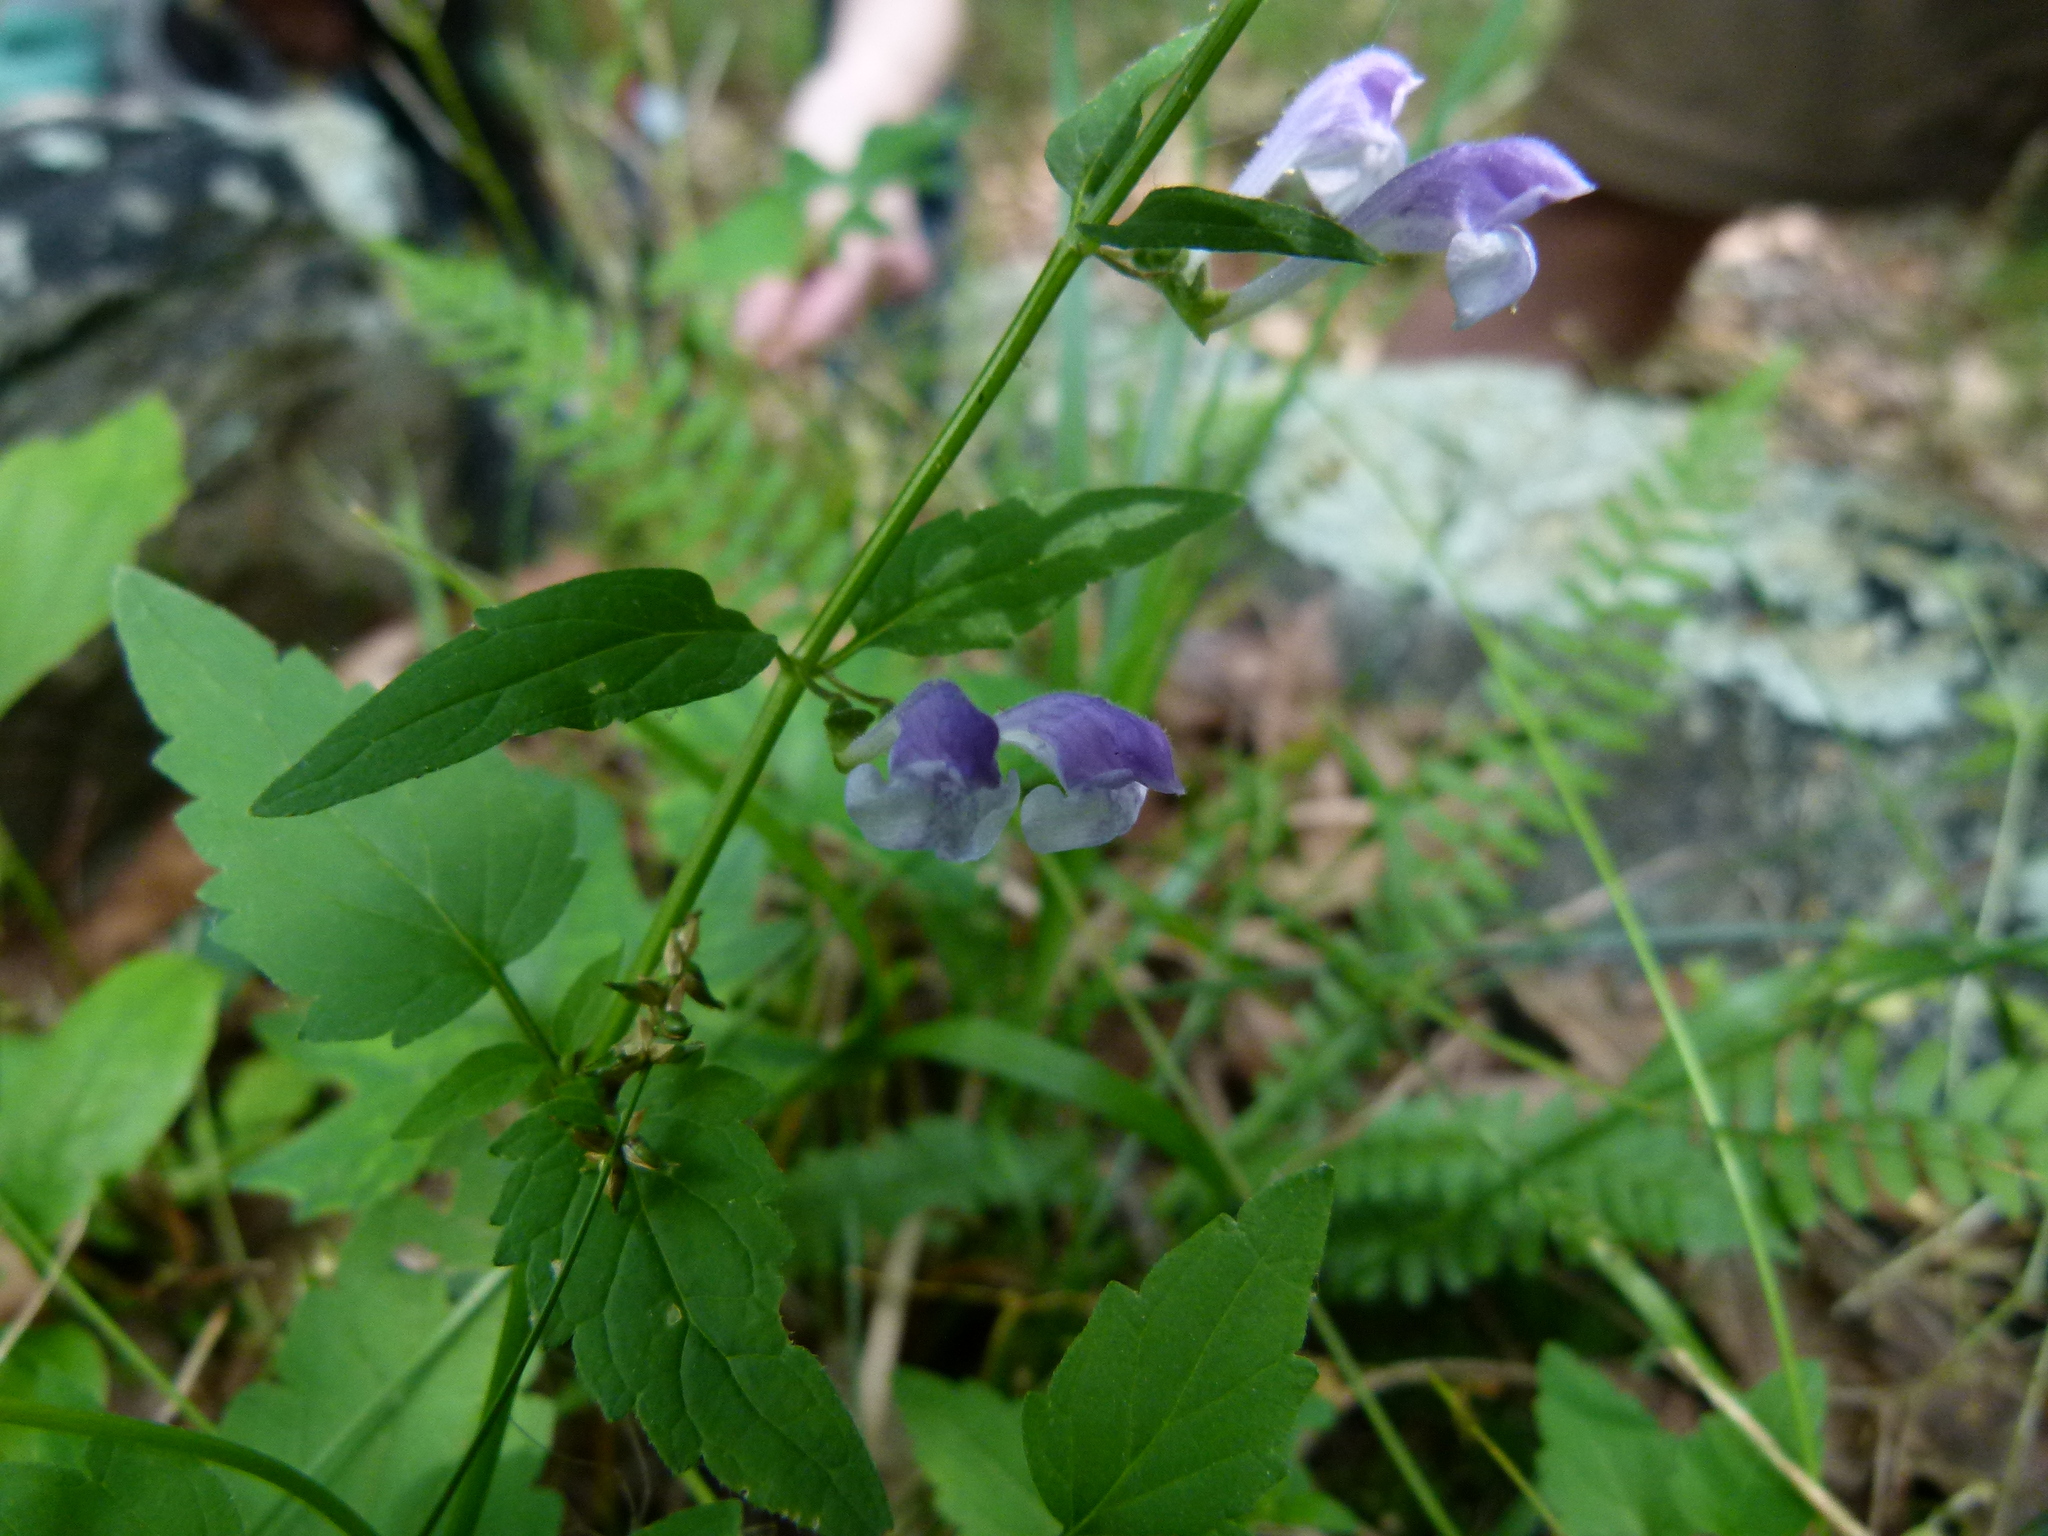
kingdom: Plantae
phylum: Tracheophyta
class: Magnoliopsida
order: Lamiales
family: Lamiaceae
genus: Scutellaria
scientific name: Scutellaria saxatilis
